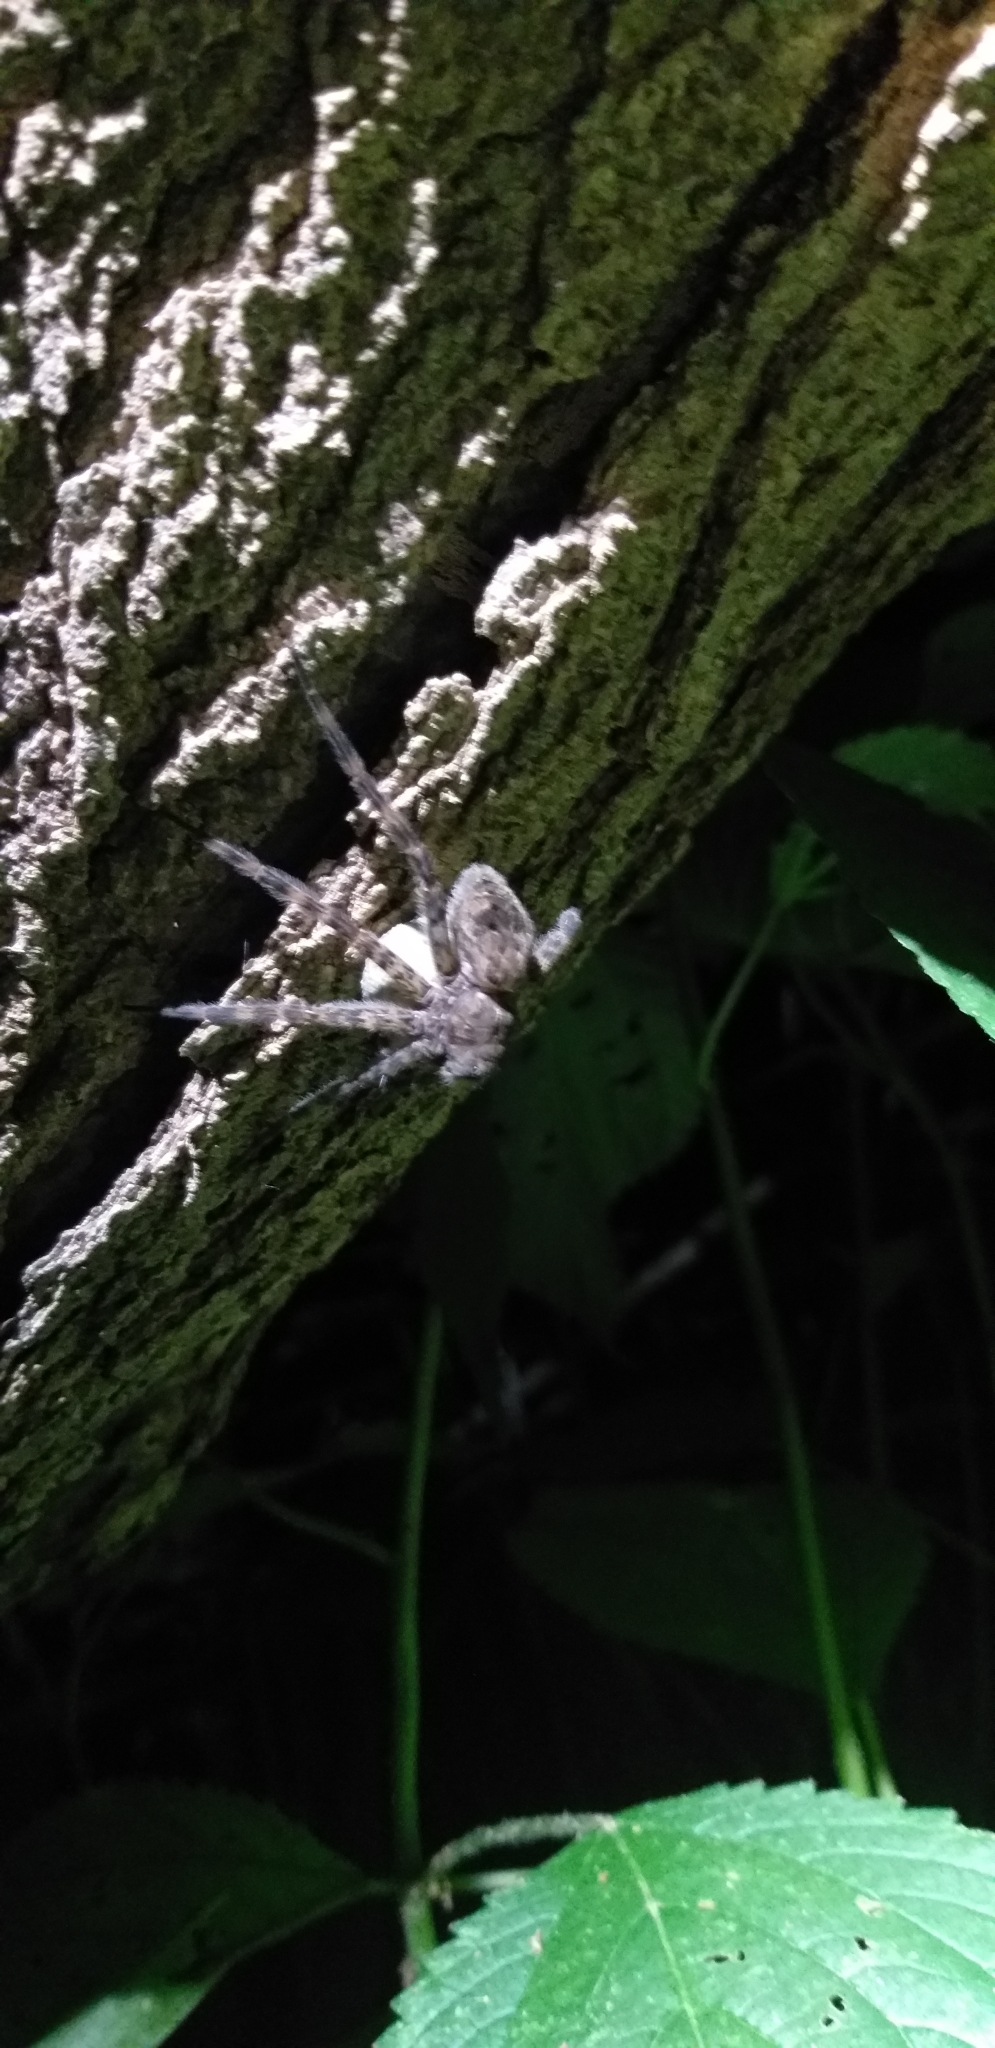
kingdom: Animalia
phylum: Arthropoda
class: Arachnida
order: Araneae
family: Pisauridae
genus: Dolomedes
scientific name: Dolomedes tenebrosus
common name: Dark fishing spider
